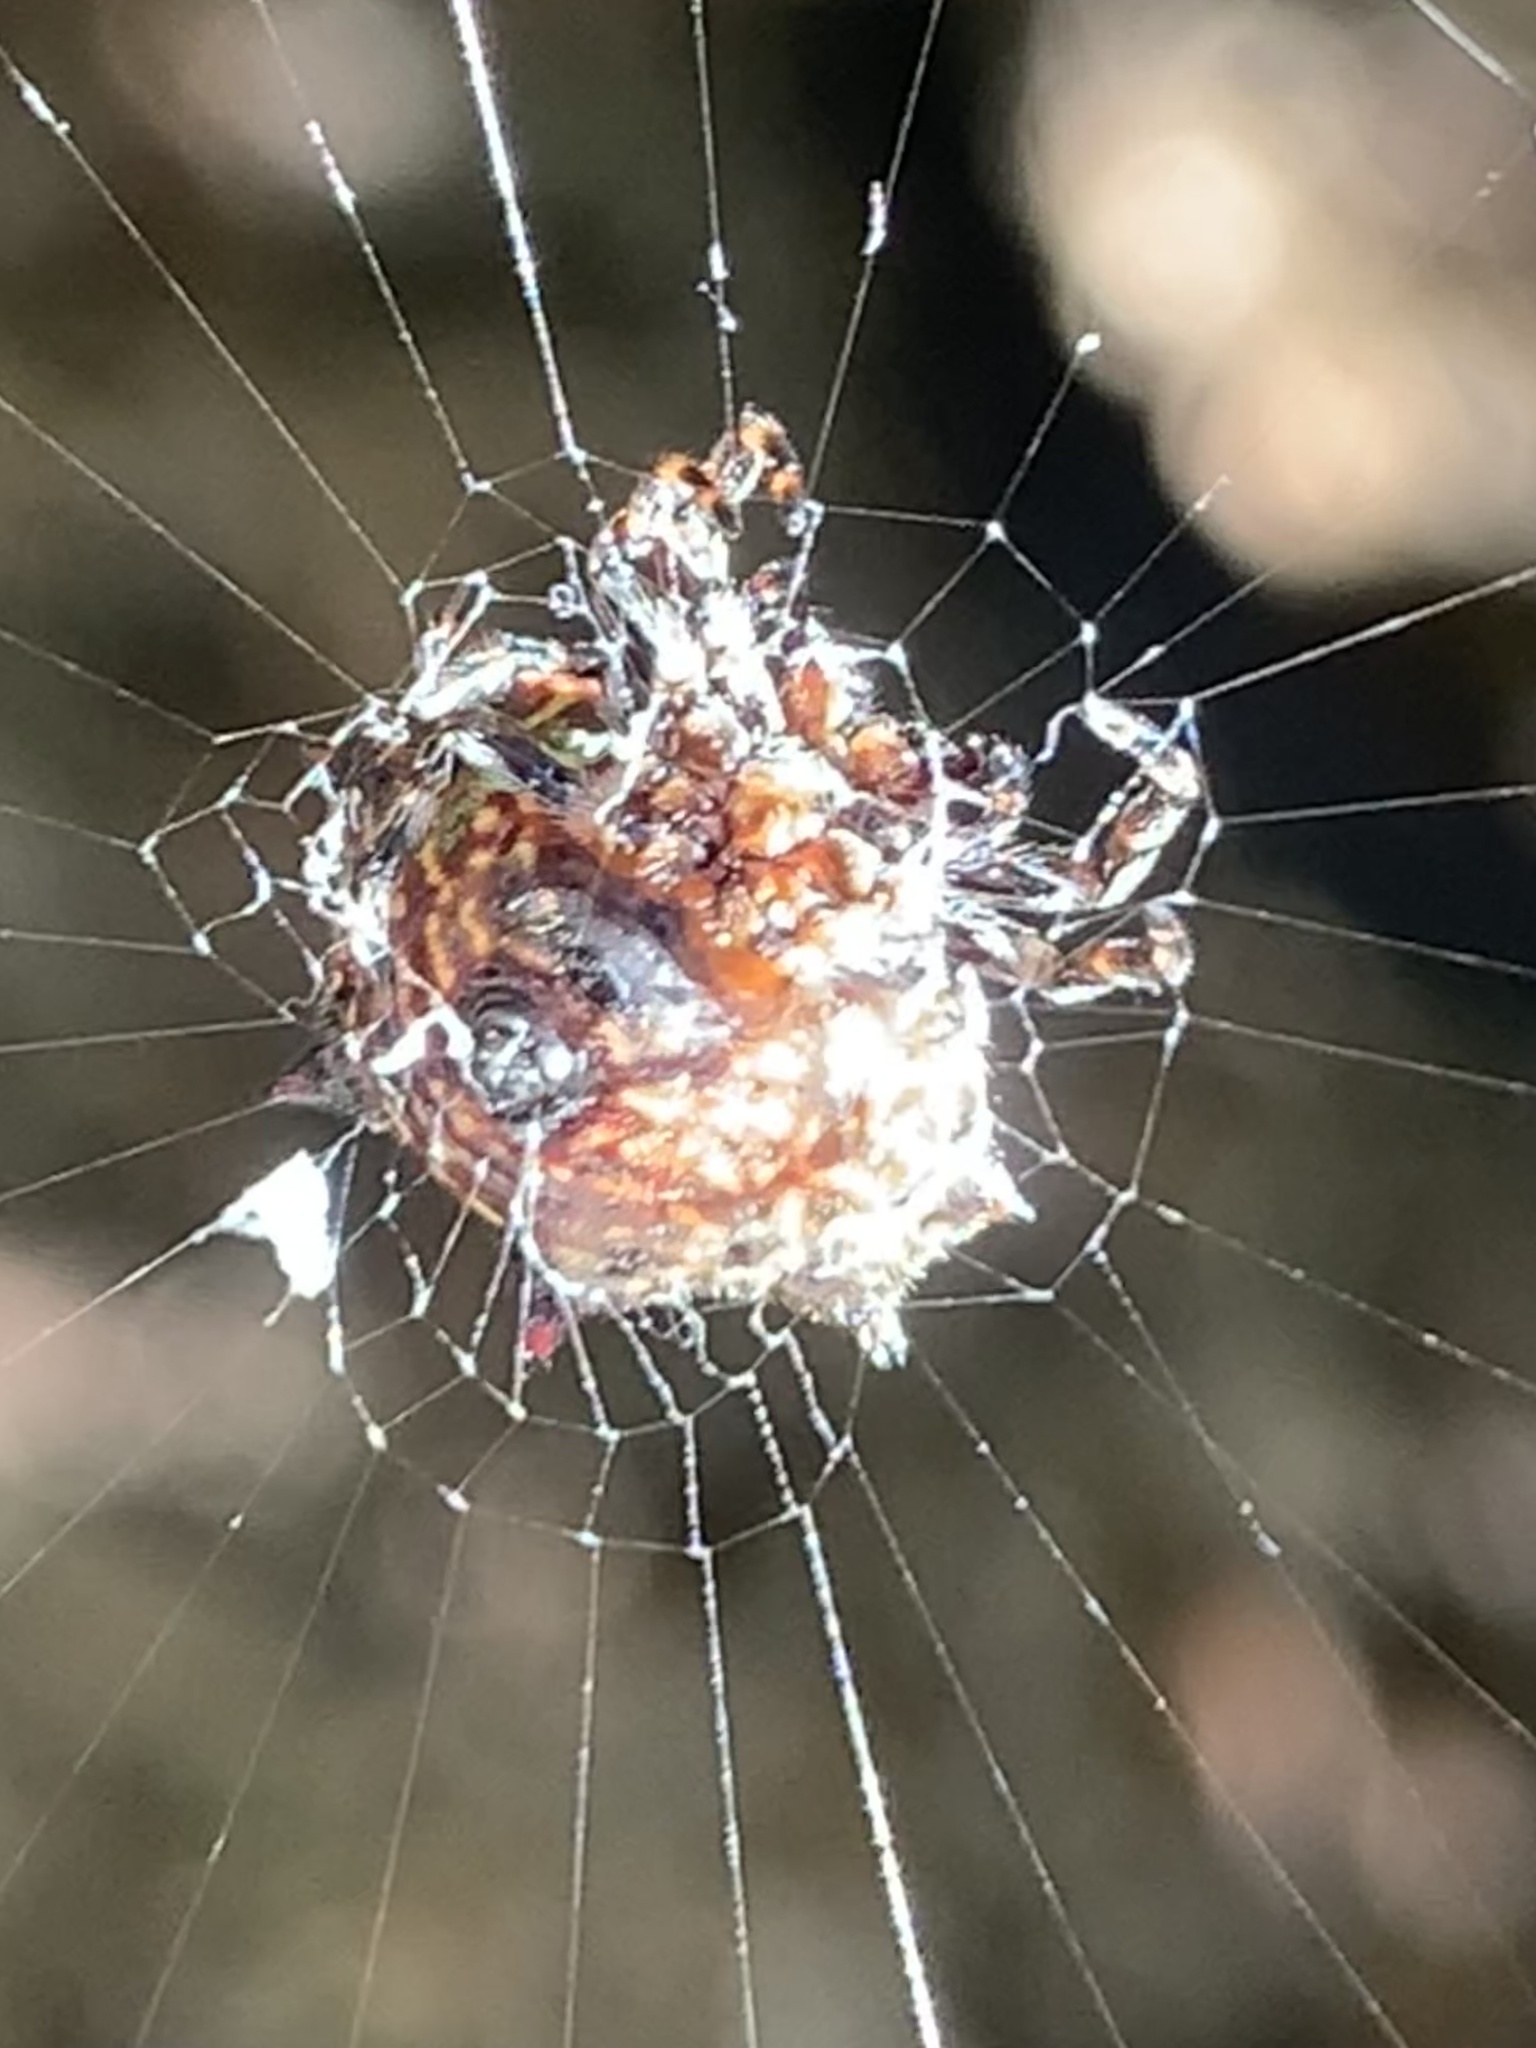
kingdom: Animalia
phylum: Arthropoda
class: Arachnida
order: Araneae
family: Araneidae
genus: Gasteracantha
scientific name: Gasteracantha cancriformis
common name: Orb weavers
